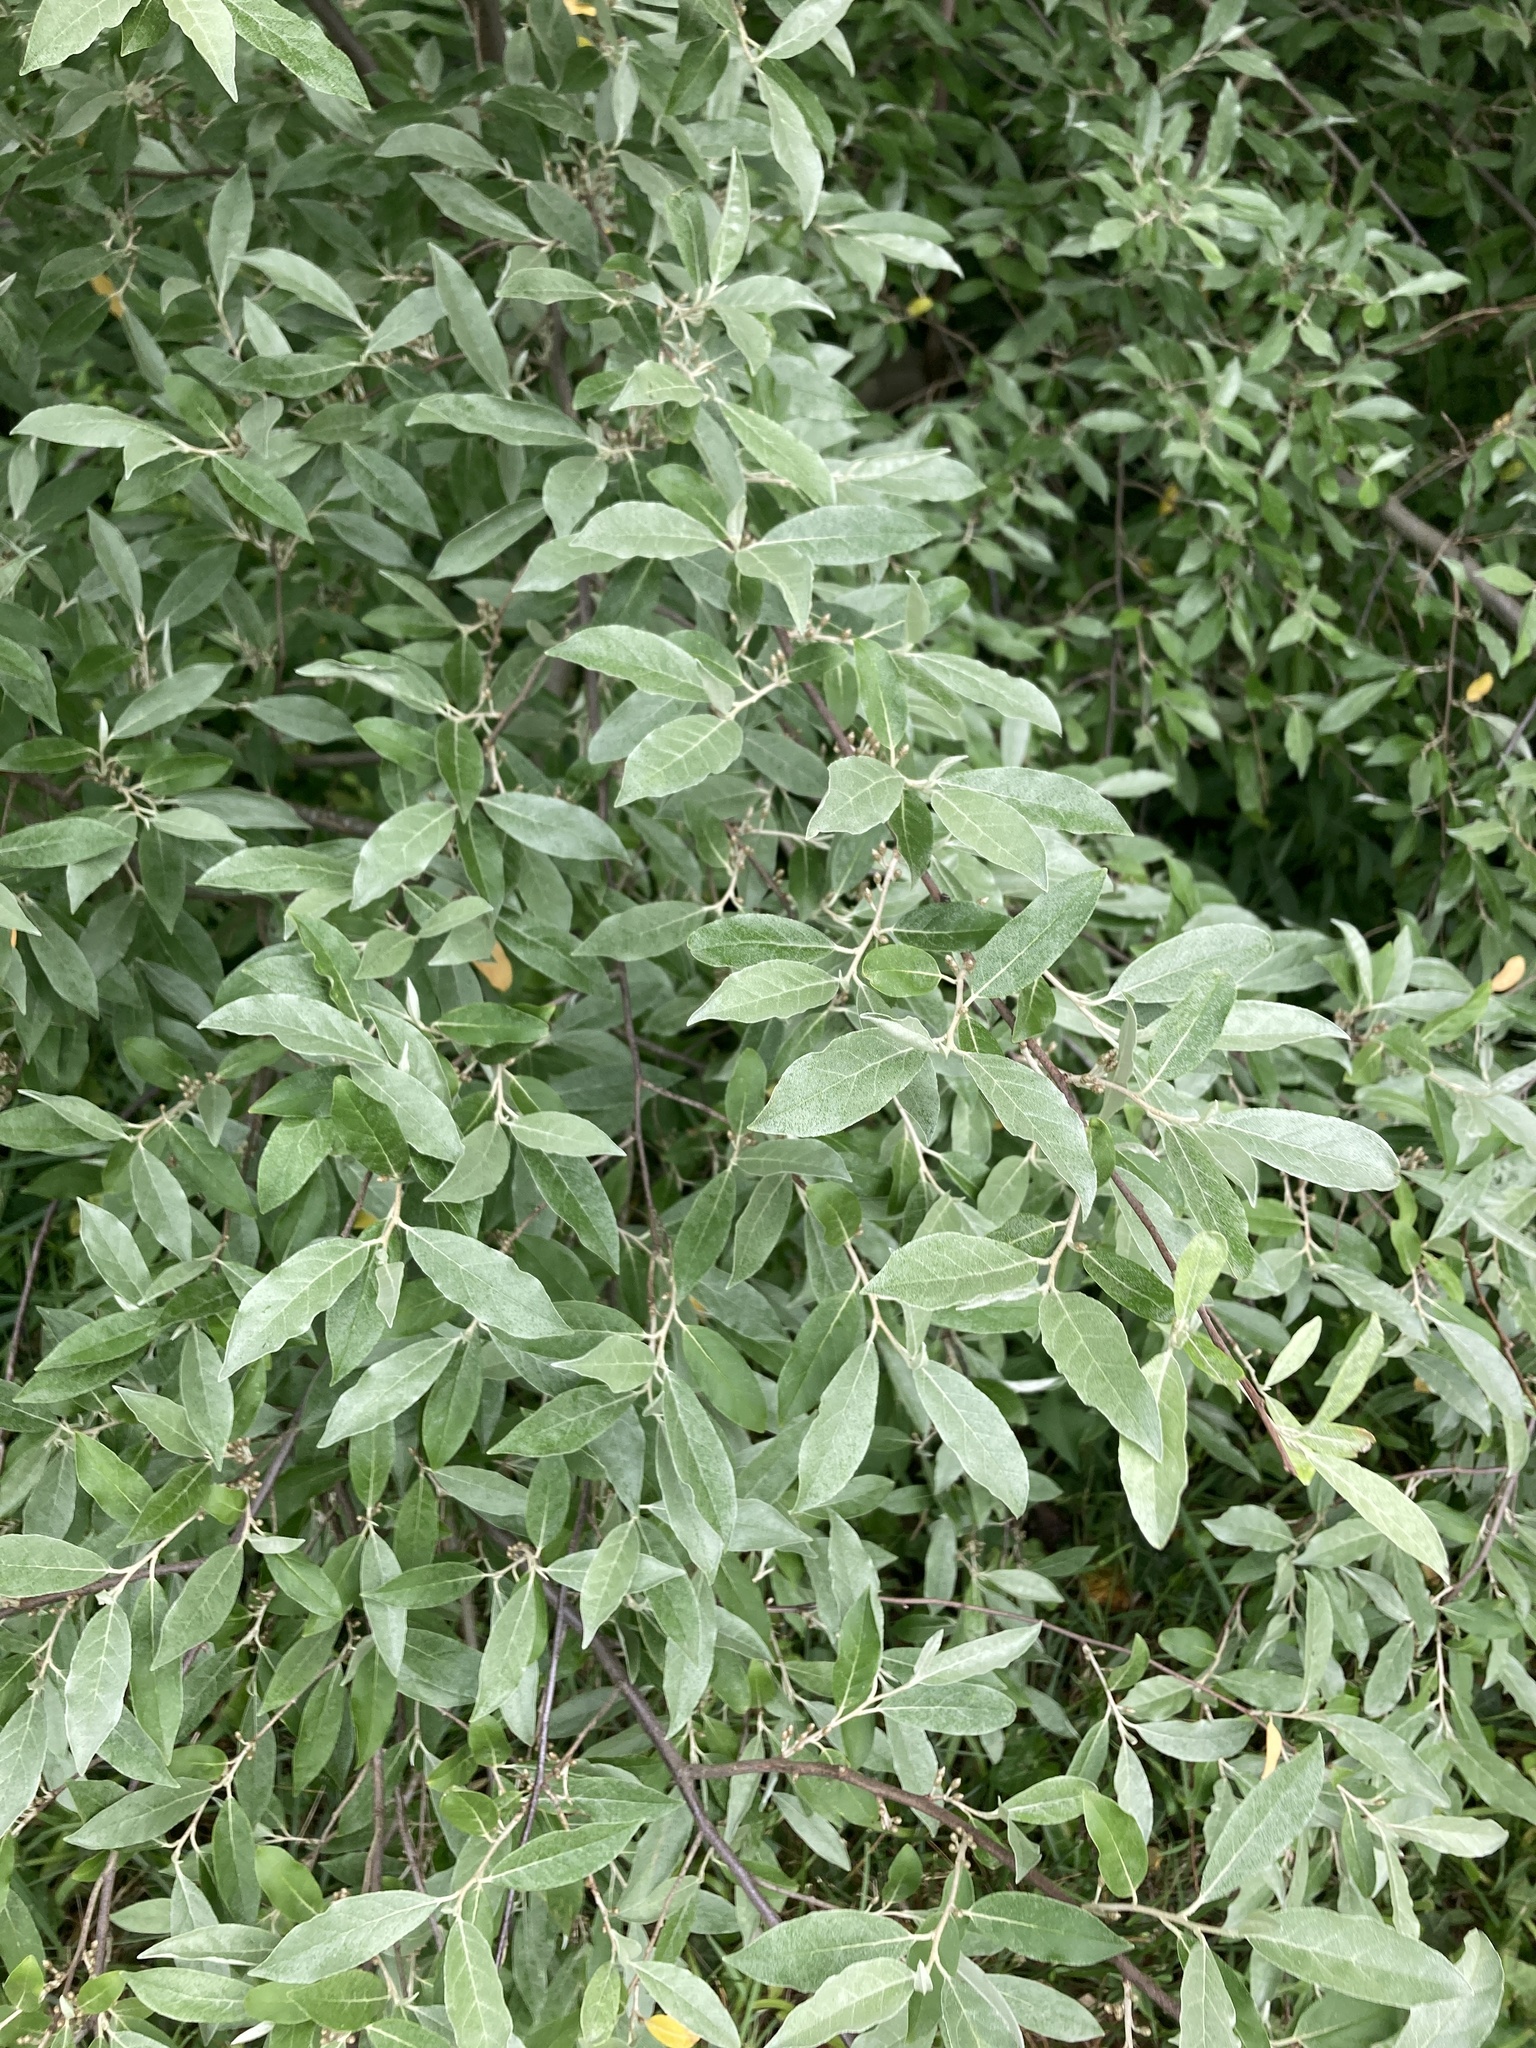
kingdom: Plantae
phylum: Tracheophyta
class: Magnoliopsida
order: Rosales
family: Elaeagnaceae
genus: Elaeagnus
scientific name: Elaeagnus umbellata
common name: Autumn olive
